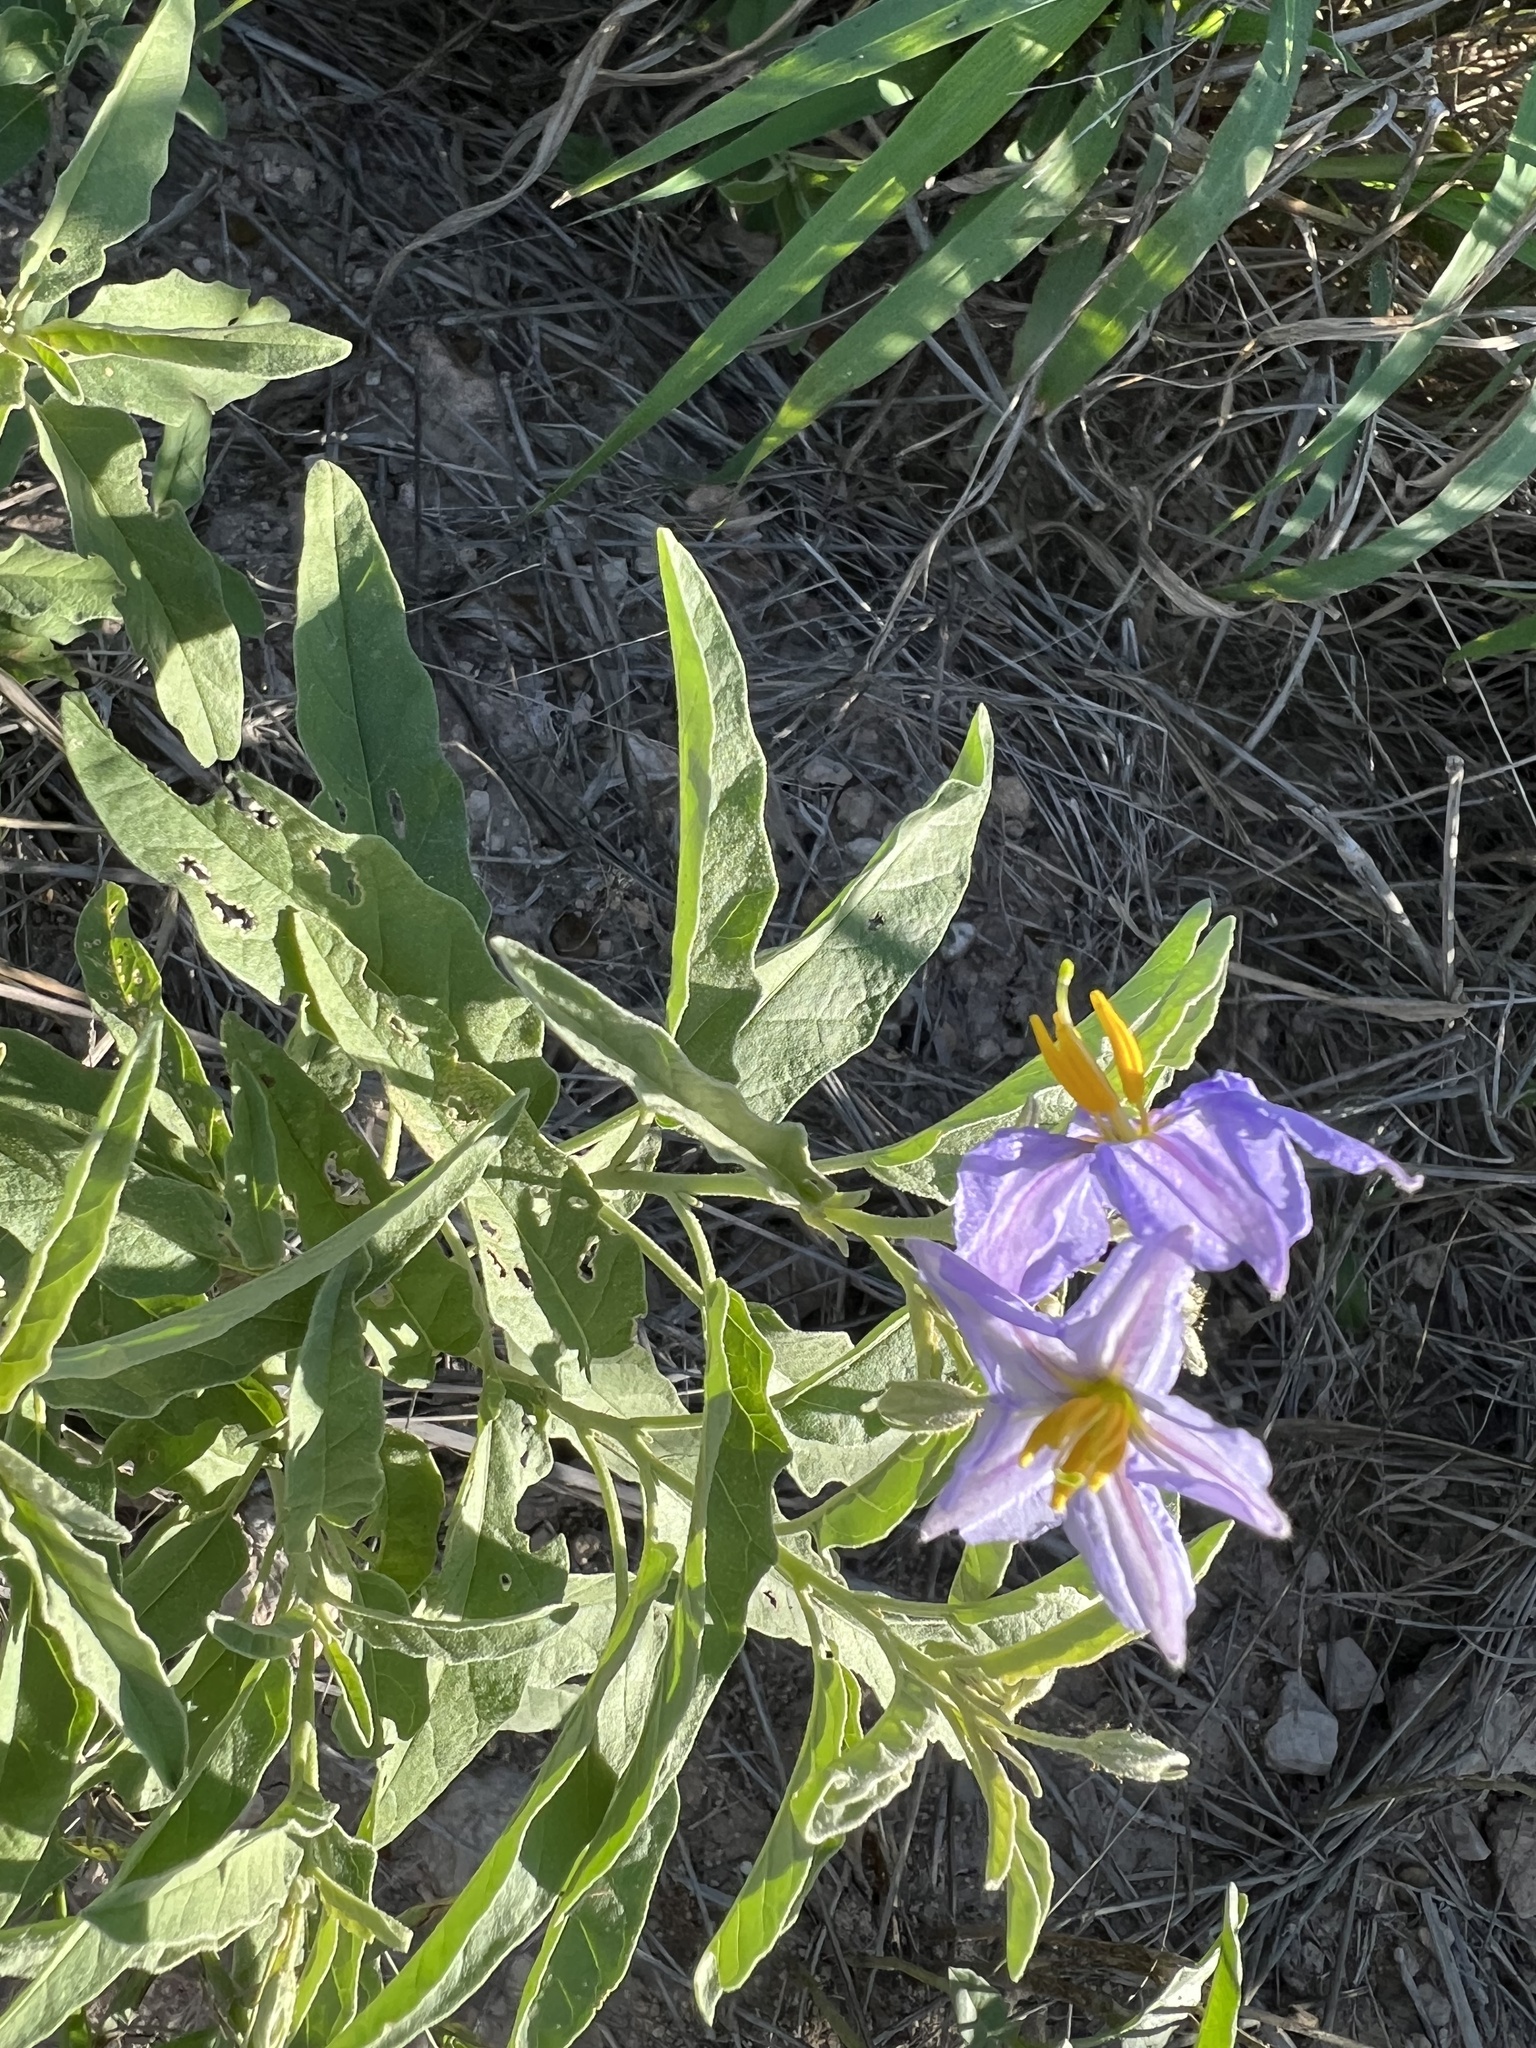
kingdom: Plantae
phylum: Tracheophyta
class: Magnoliopsida
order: Solanales
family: Solanaceae
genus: Solanum
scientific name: Solanum elaeagnifolium
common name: Silverleaf nightshade
